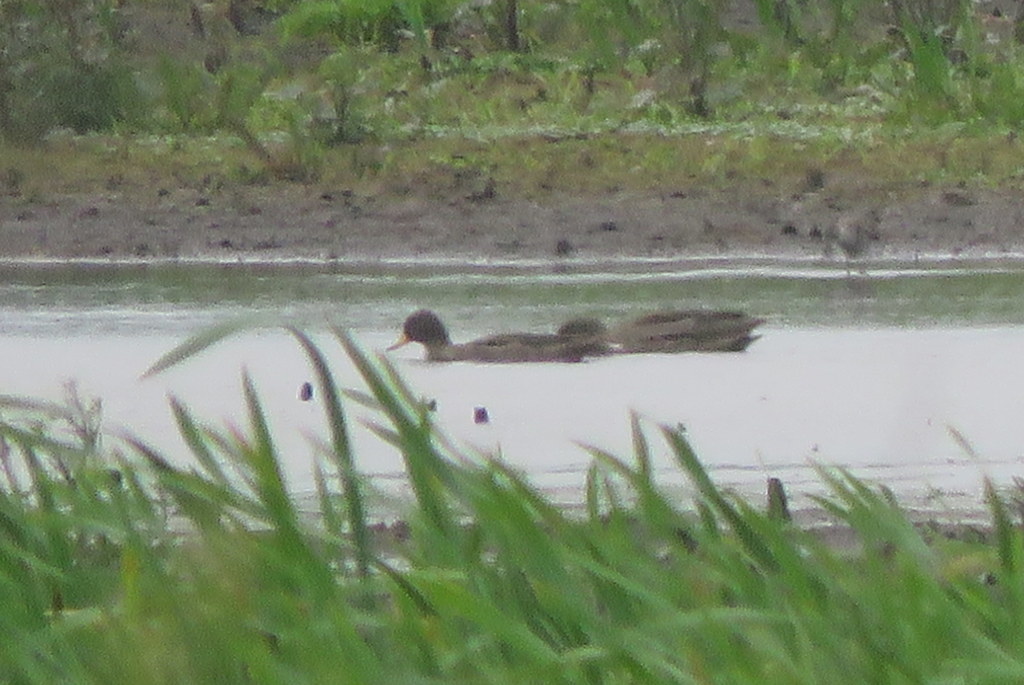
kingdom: Animalia
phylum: Chordata
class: Aves
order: Anseriformes
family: Anatidae
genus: Anas
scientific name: Anas flavirostris
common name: Yellow-billed teal
